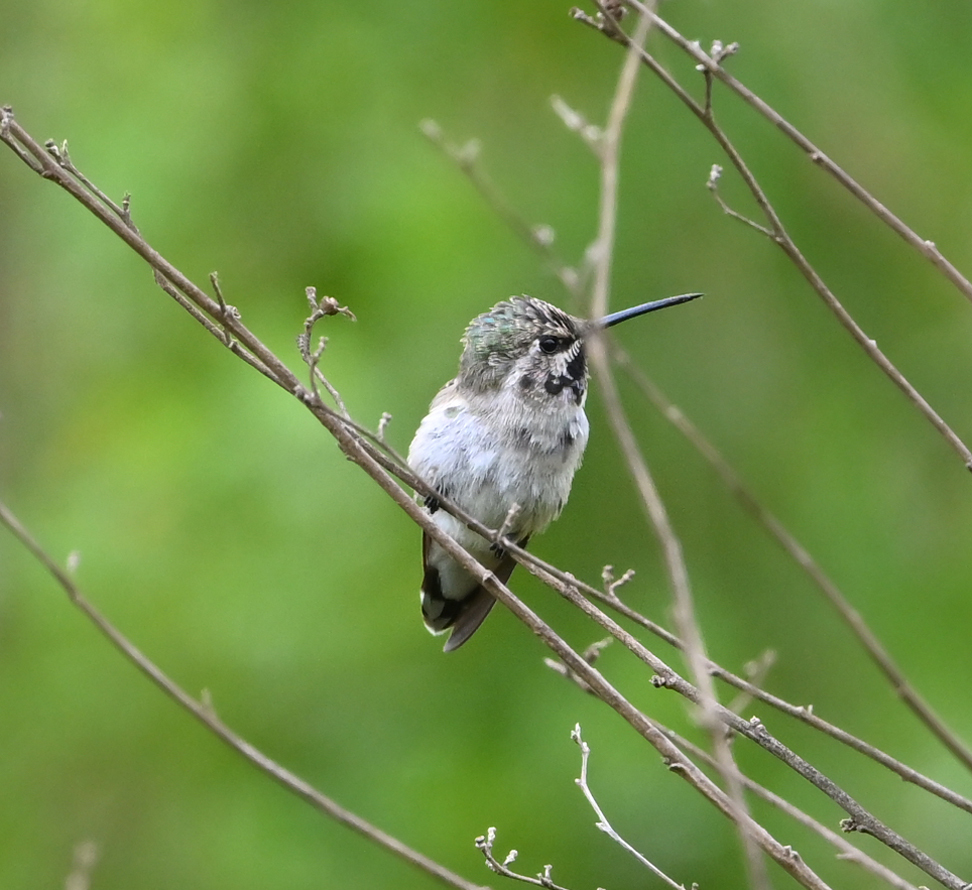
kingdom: Animalia
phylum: Chordata
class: Aves
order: Apodiformes
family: Trochilidae
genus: Calypte
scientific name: Calypte costae
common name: Costa's hummingbird
